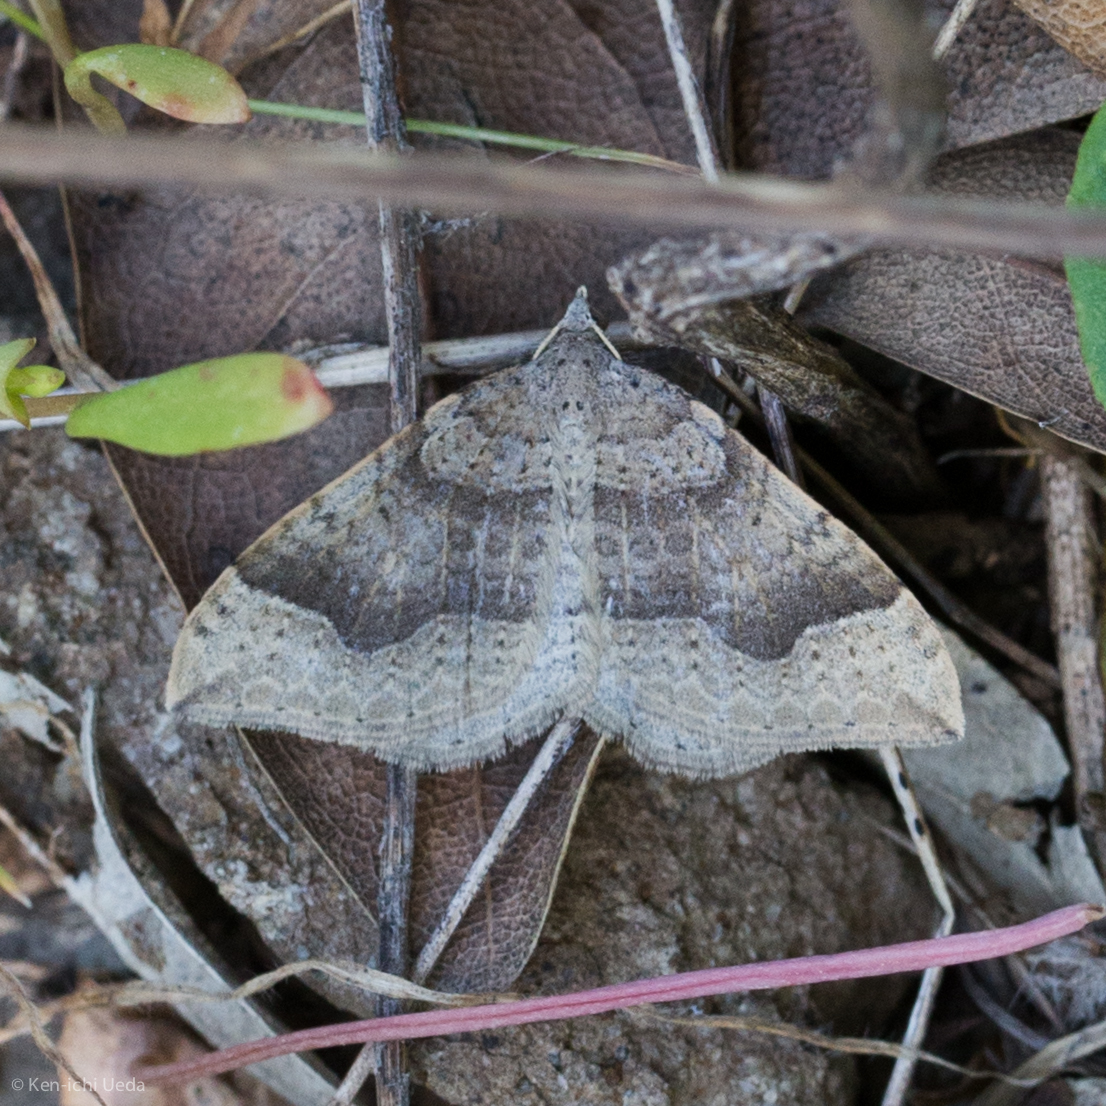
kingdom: Animalia
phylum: Arthropoda
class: Insecta
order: Lepidoptera
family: Geometridae
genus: Zenophleps
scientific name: Zenophleps lignicolorata
